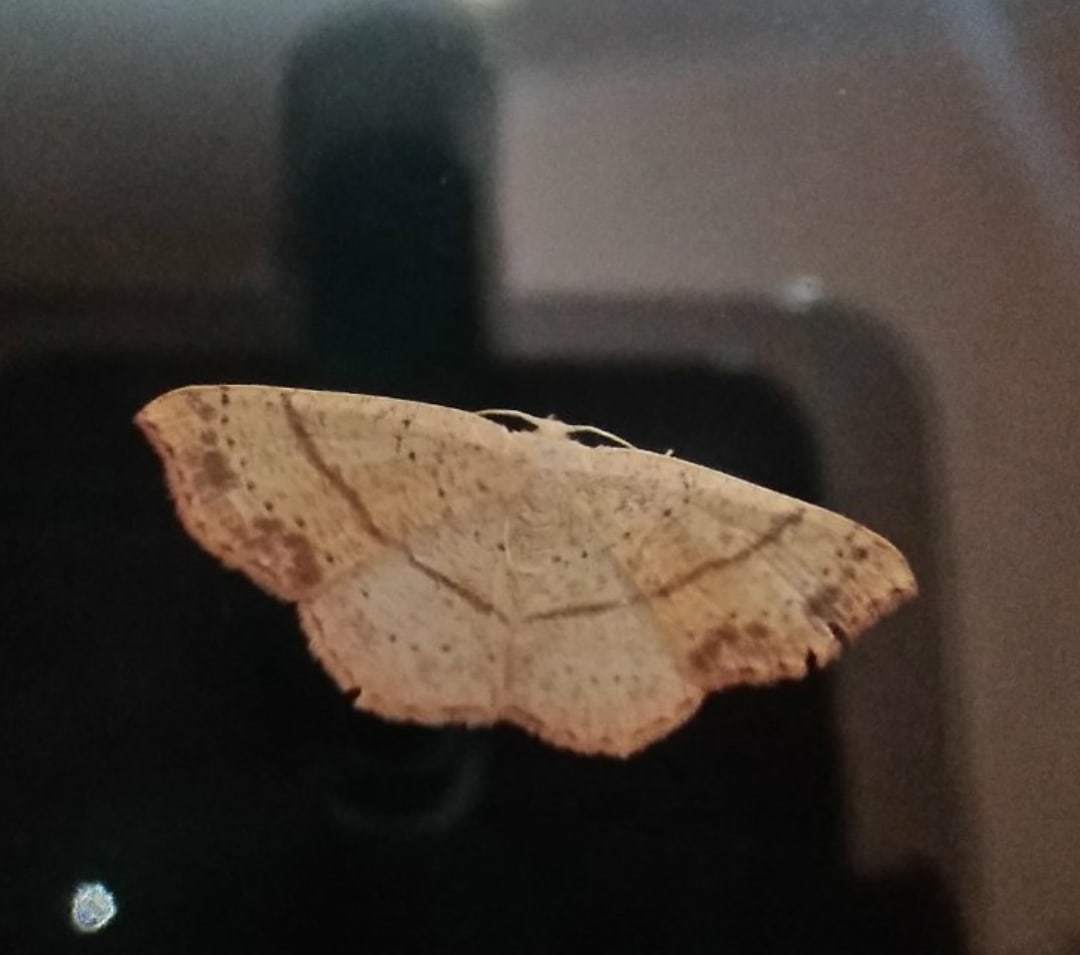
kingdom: Animalia
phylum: Arthropoda
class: Insecta
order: Lepidoptera
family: Geometridae
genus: Cyclophora
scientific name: Cyclophora punctaria
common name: Maiden's blush
